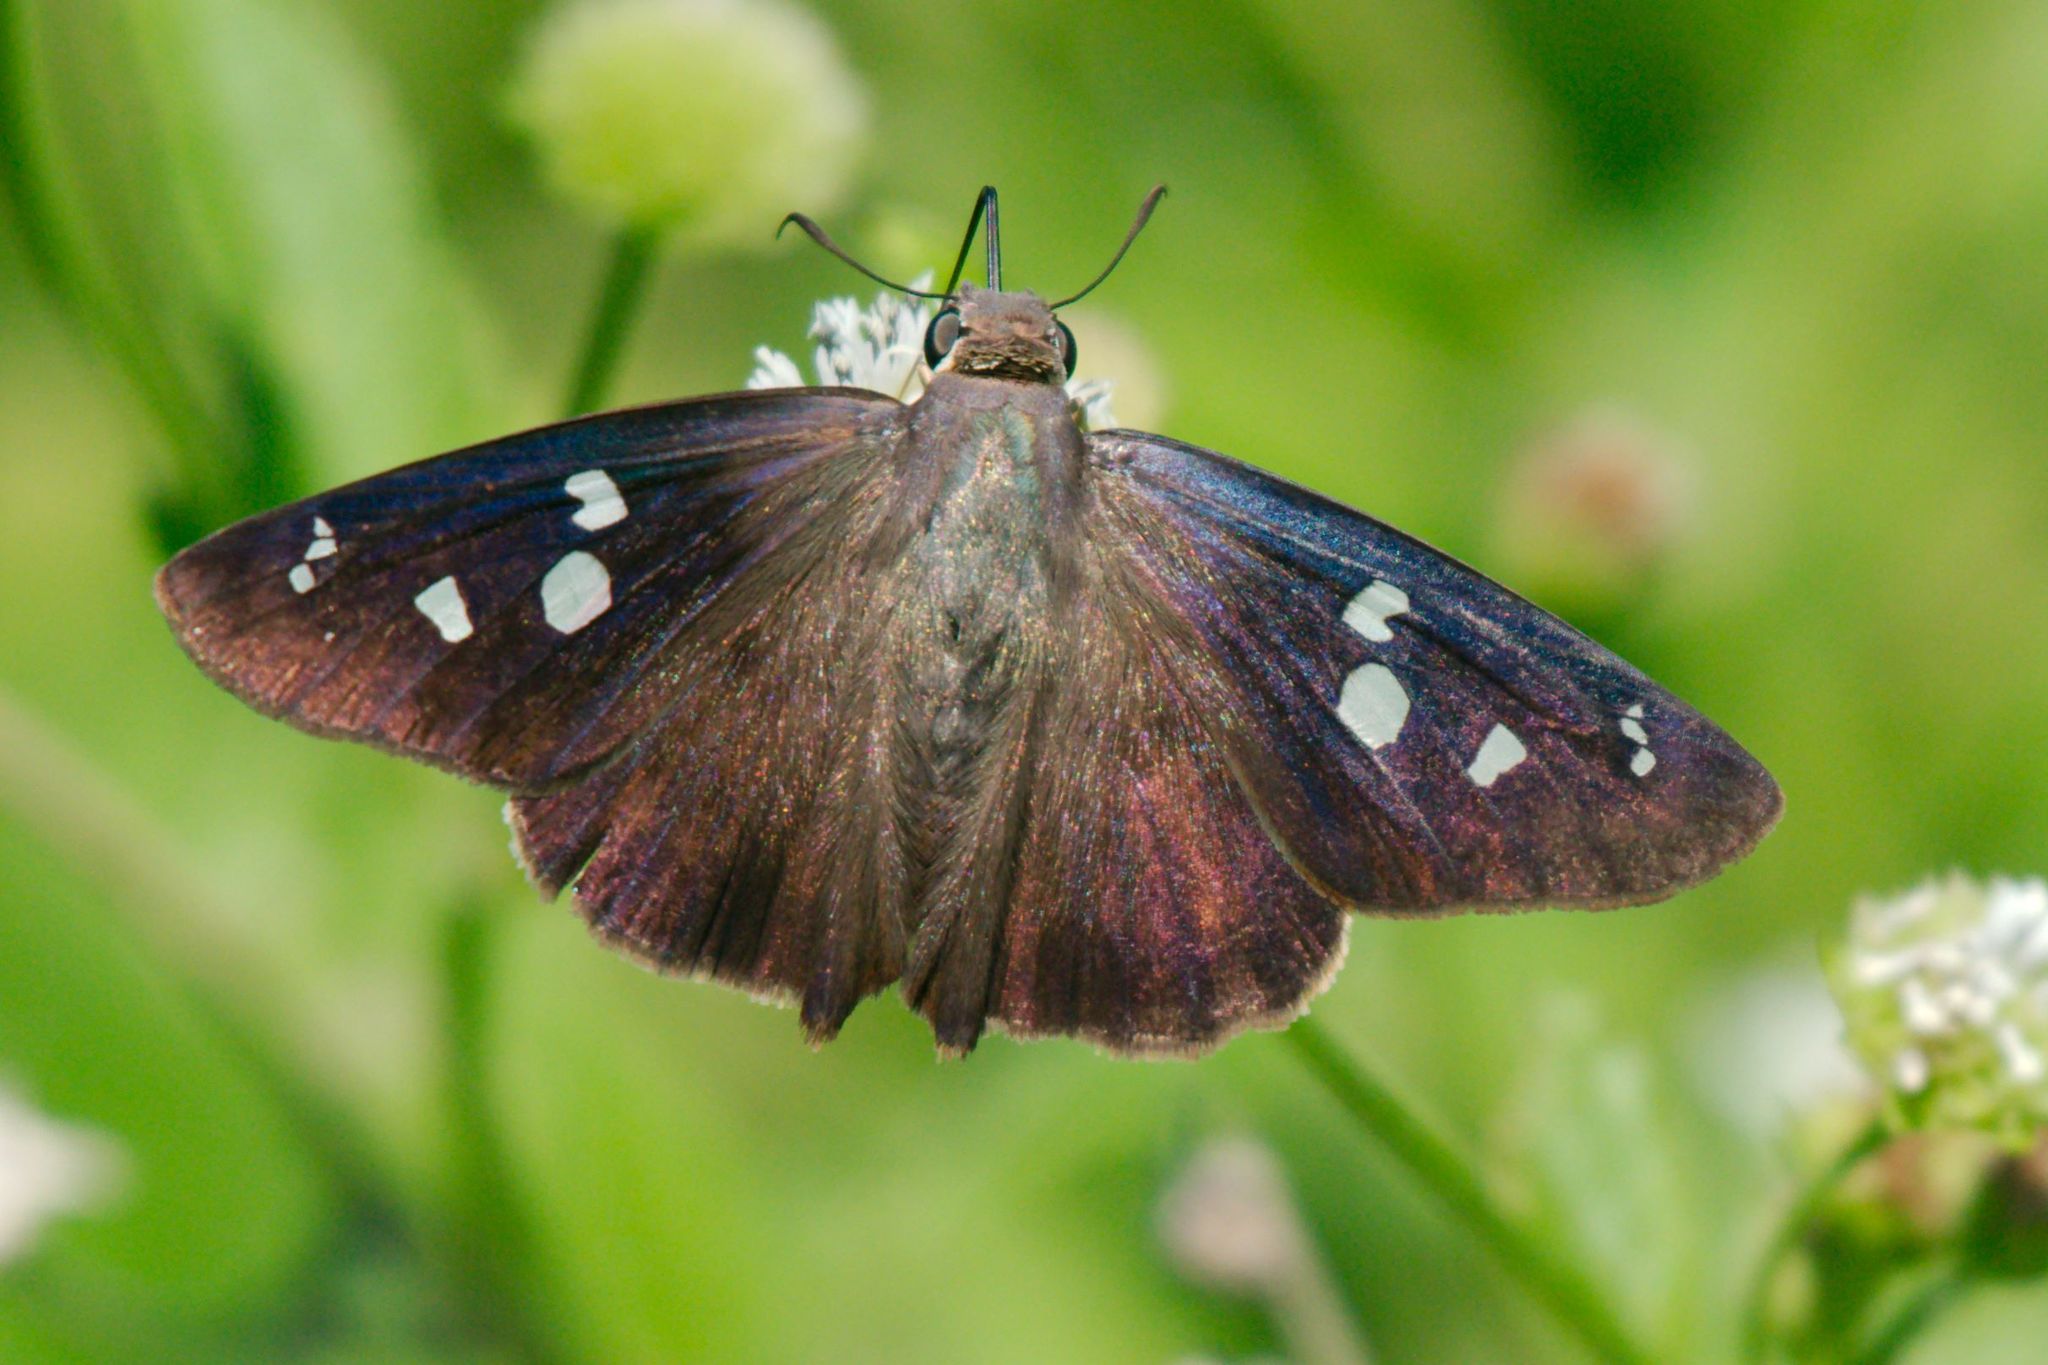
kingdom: Animalia
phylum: Arthropoda
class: Insecta
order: Lepidoptera
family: Hesperiidae
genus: Polygonus
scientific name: Polygonus leo
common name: Hammoch skipper
